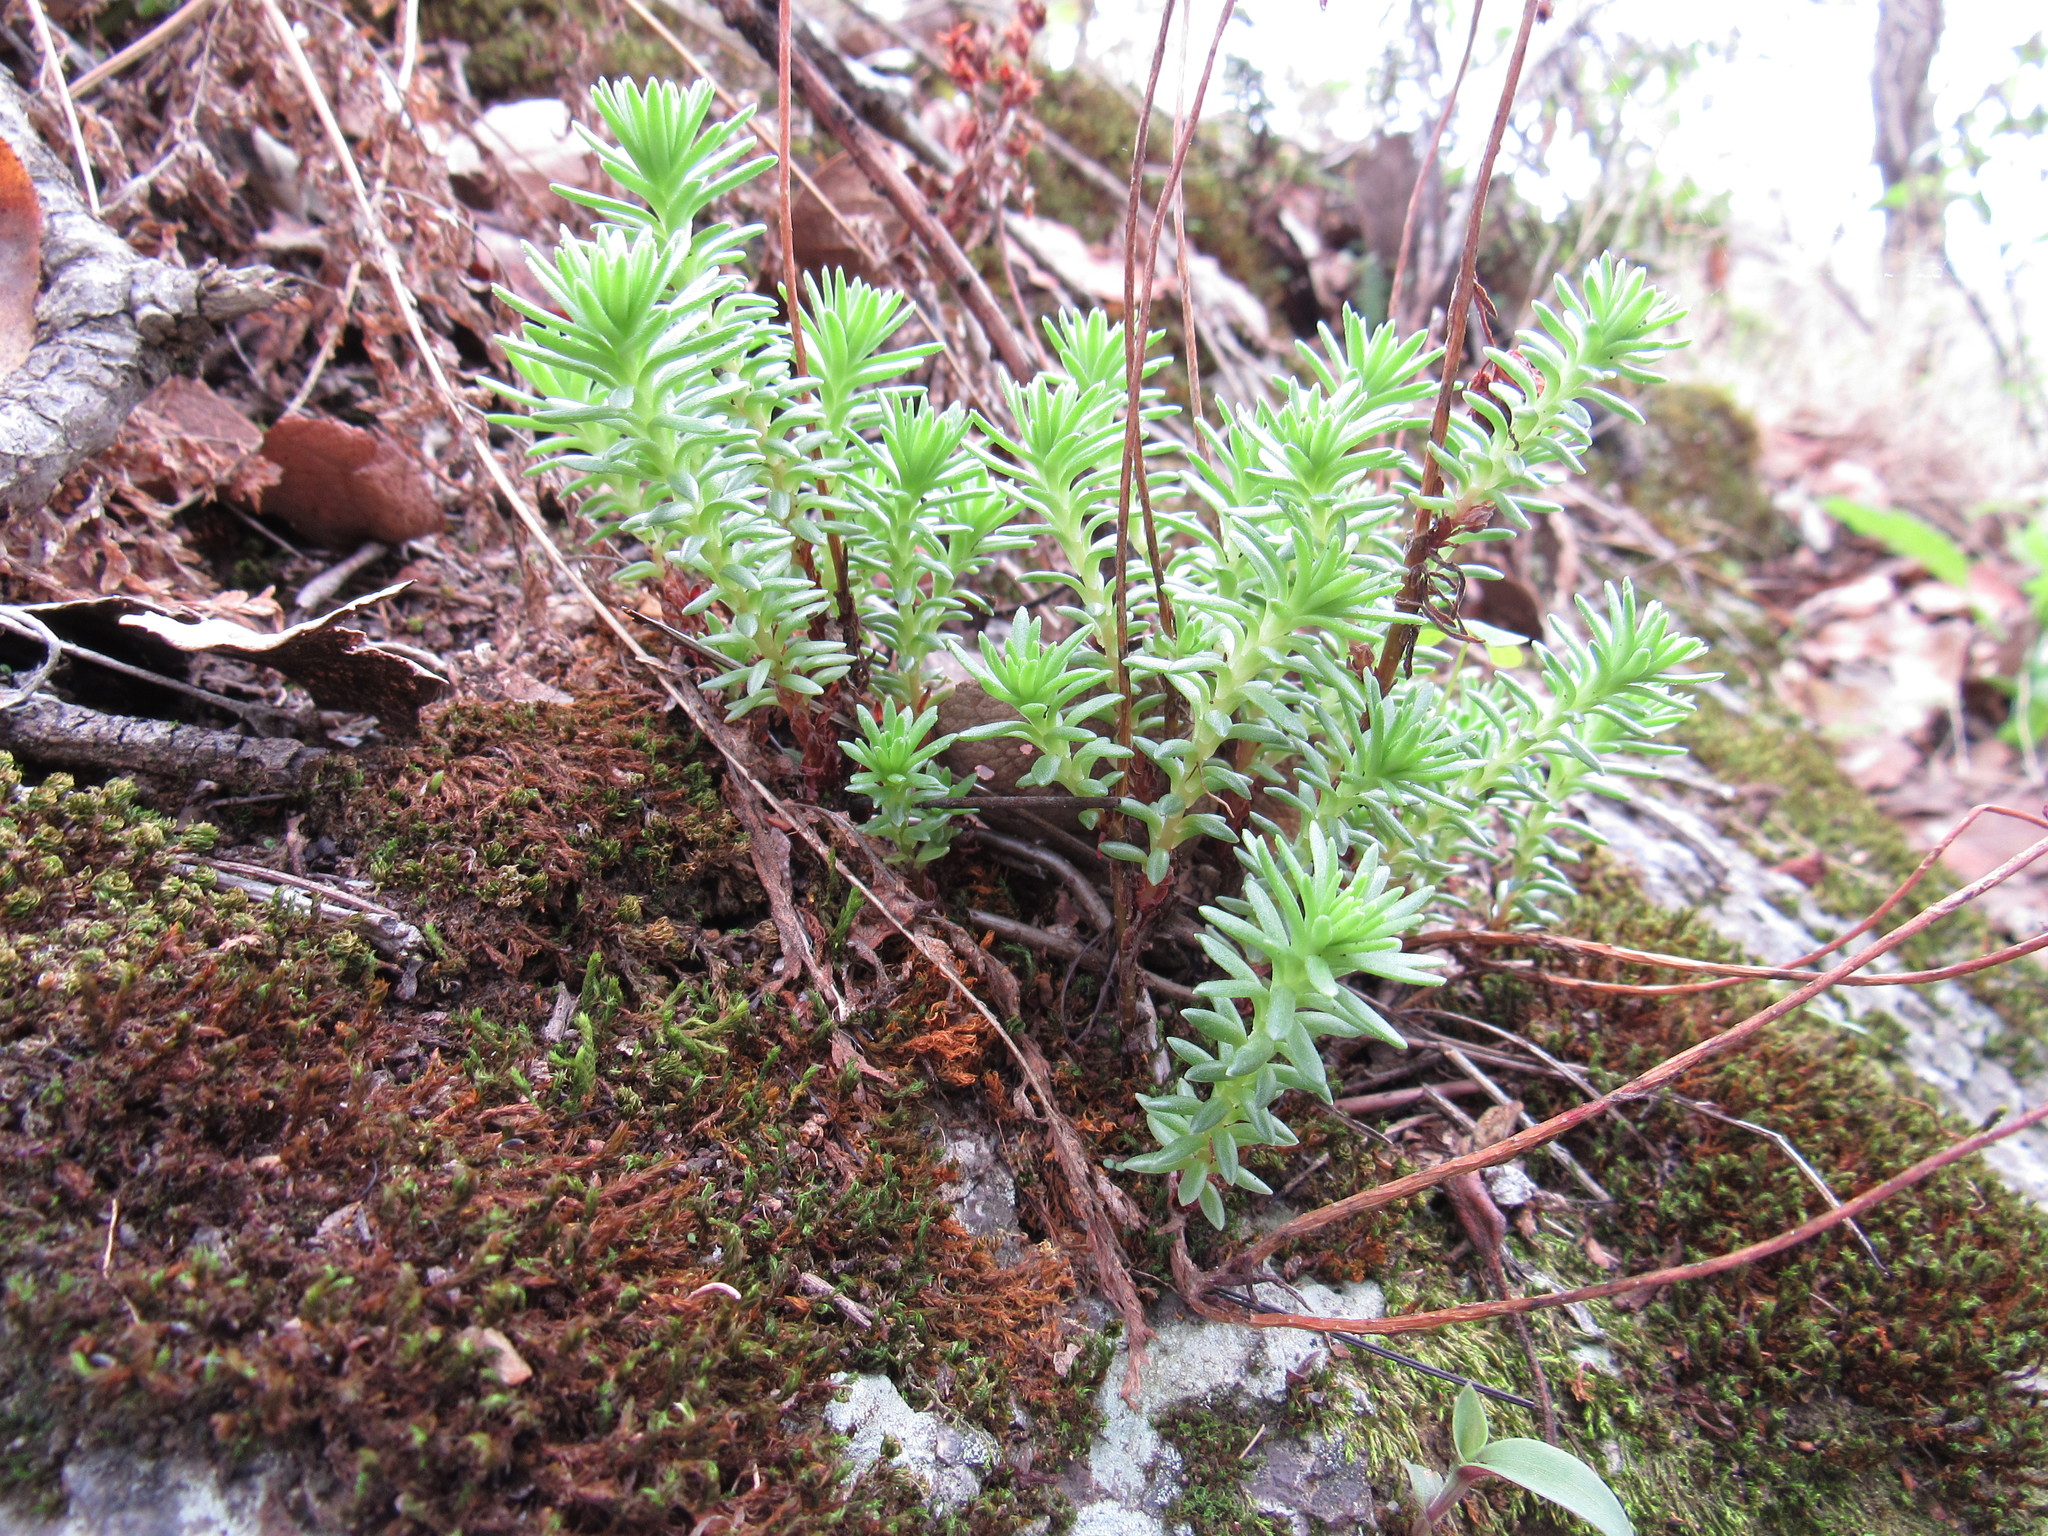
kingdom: Plantae
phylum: Tracheophyta
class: Magnoliopsida
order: Saxifragales
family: Crassulaceae
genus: Sedum
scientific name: Sedum goldmanii
